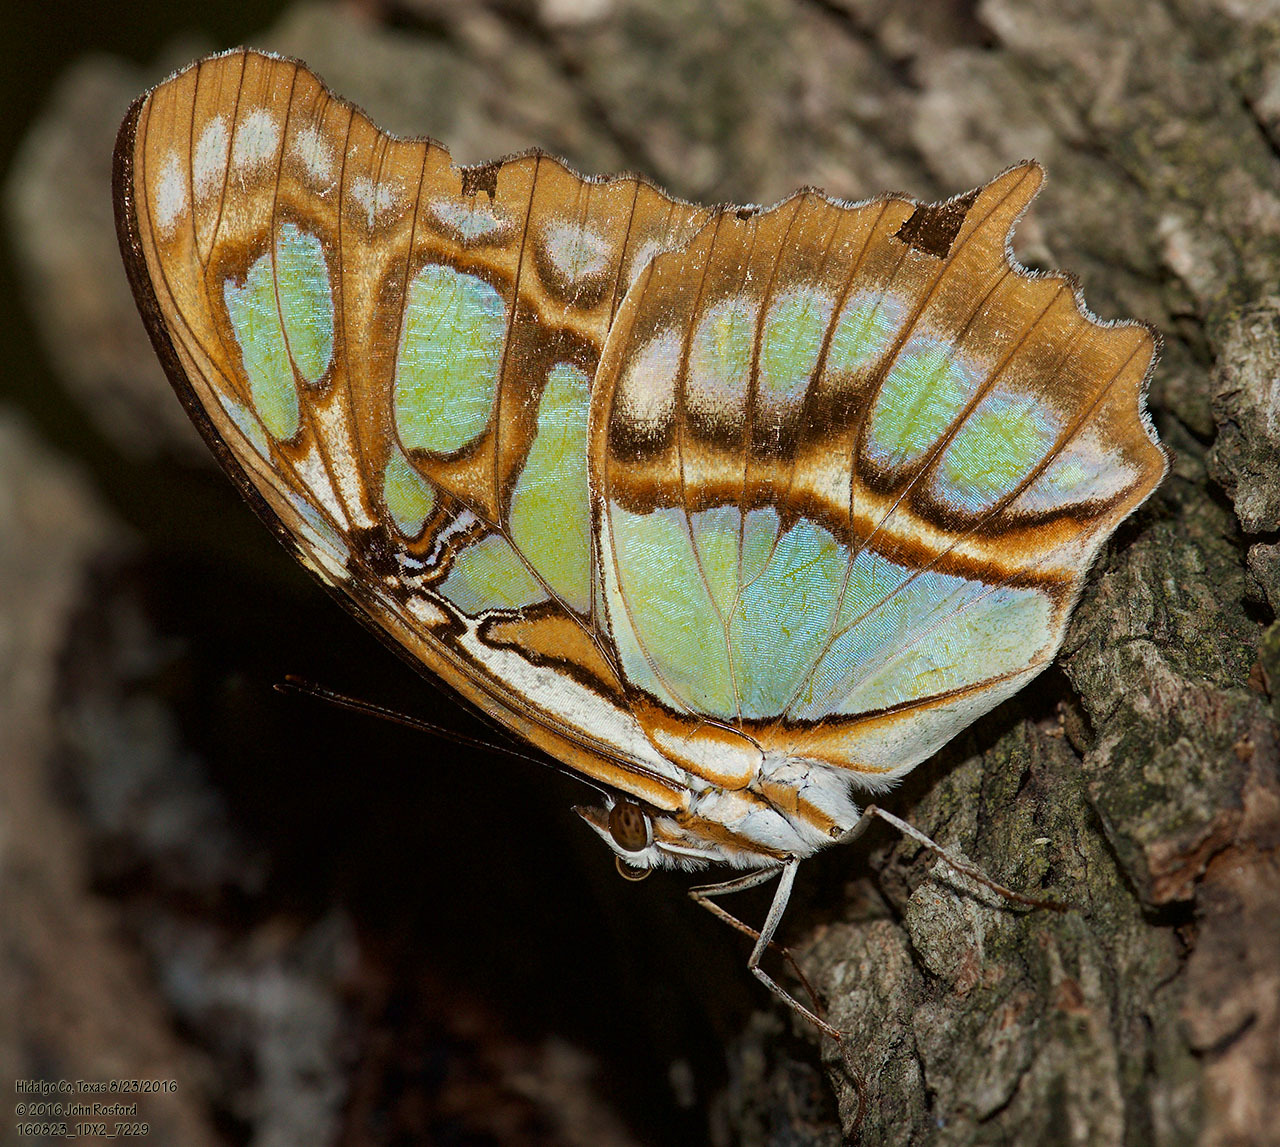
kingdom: Animalia
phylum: Arthropoda
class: Insecta
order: Lepidoptera
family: Nymphalidae
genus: Siproeta
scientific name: Siproeta stelenes
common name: Malachite
